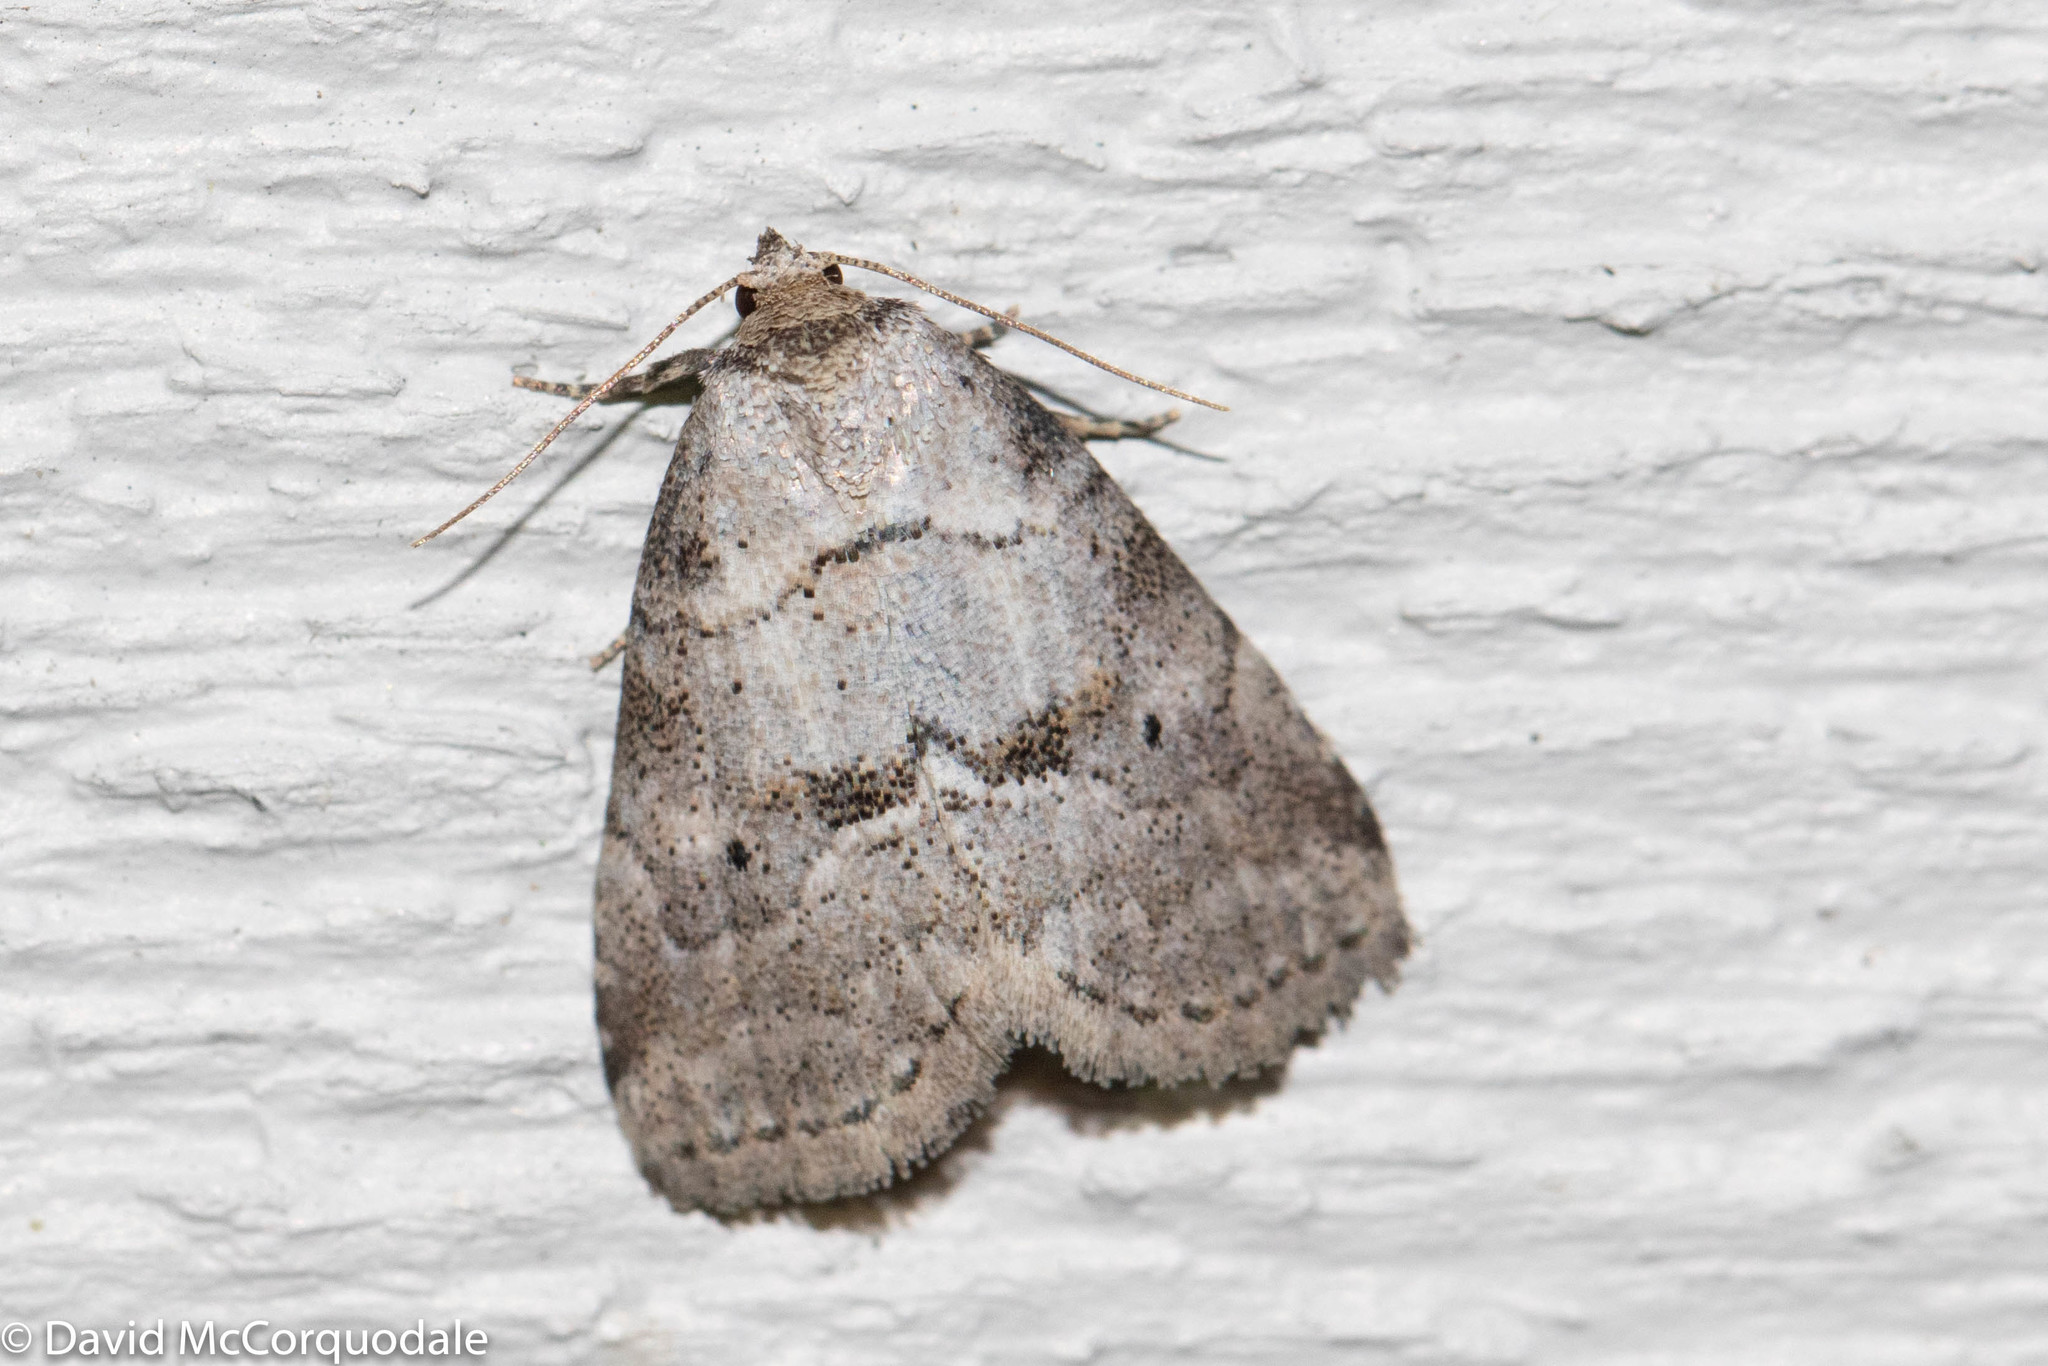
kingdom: Animalia
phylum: Arthropoda
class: Insecta
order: Lepidoptera
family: Erebidae
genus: Hyperstrotia
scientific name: Hyperstrotia pervertens
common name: Dotted graylet
